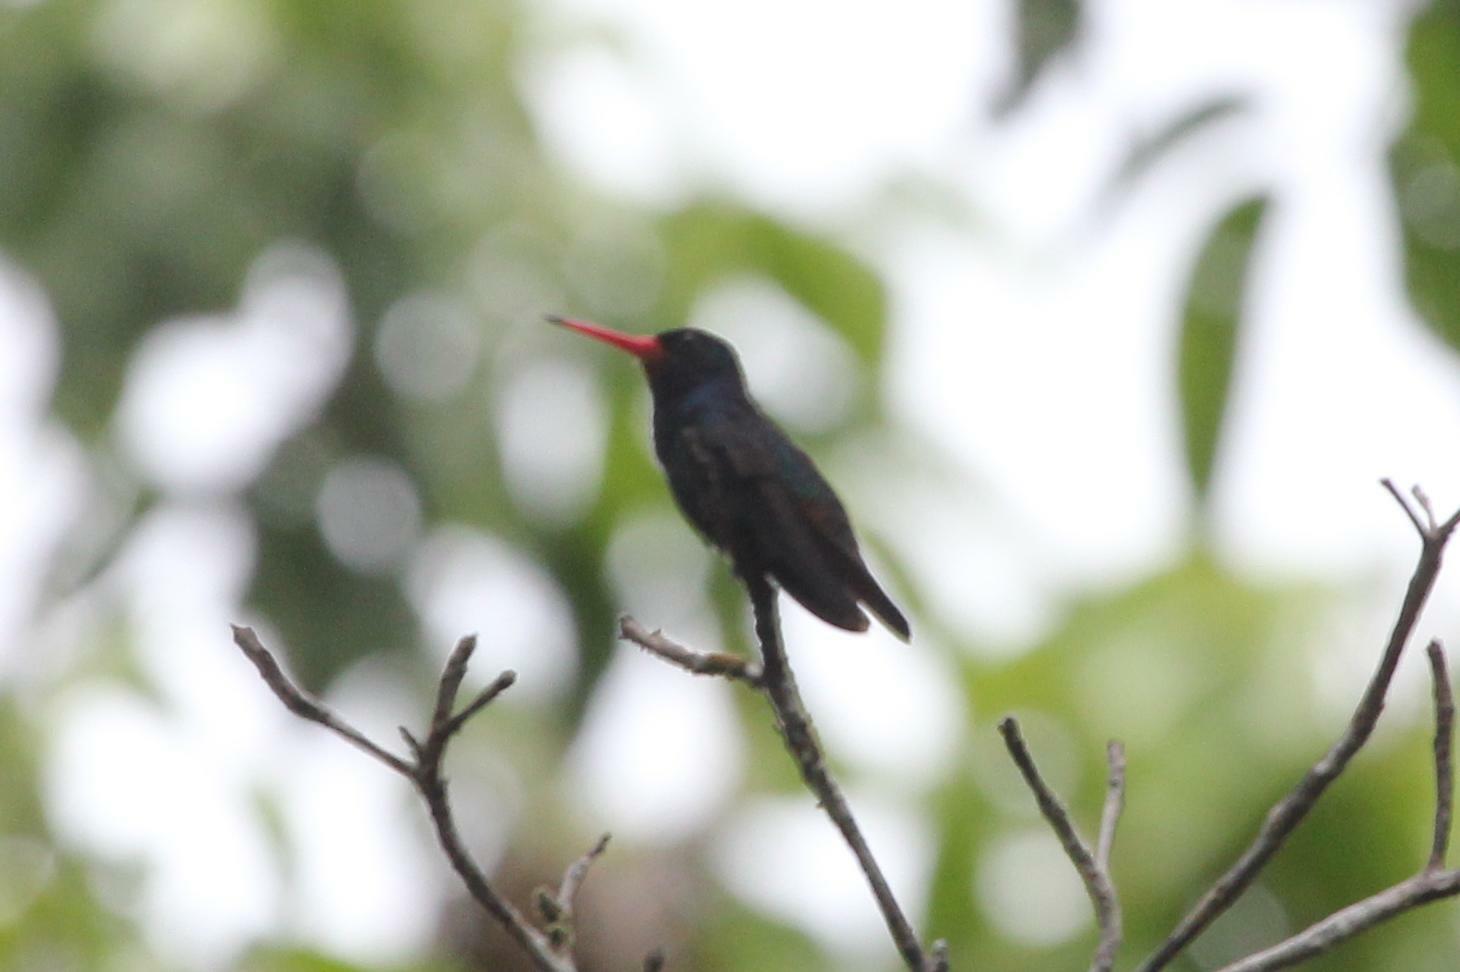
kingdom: Animalia
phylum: Chordata
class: Aves
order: Apodiformes
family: Trochilidae
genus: Chlorestes
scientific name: Chlorestes cyanus
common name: White-chinned sapphire
